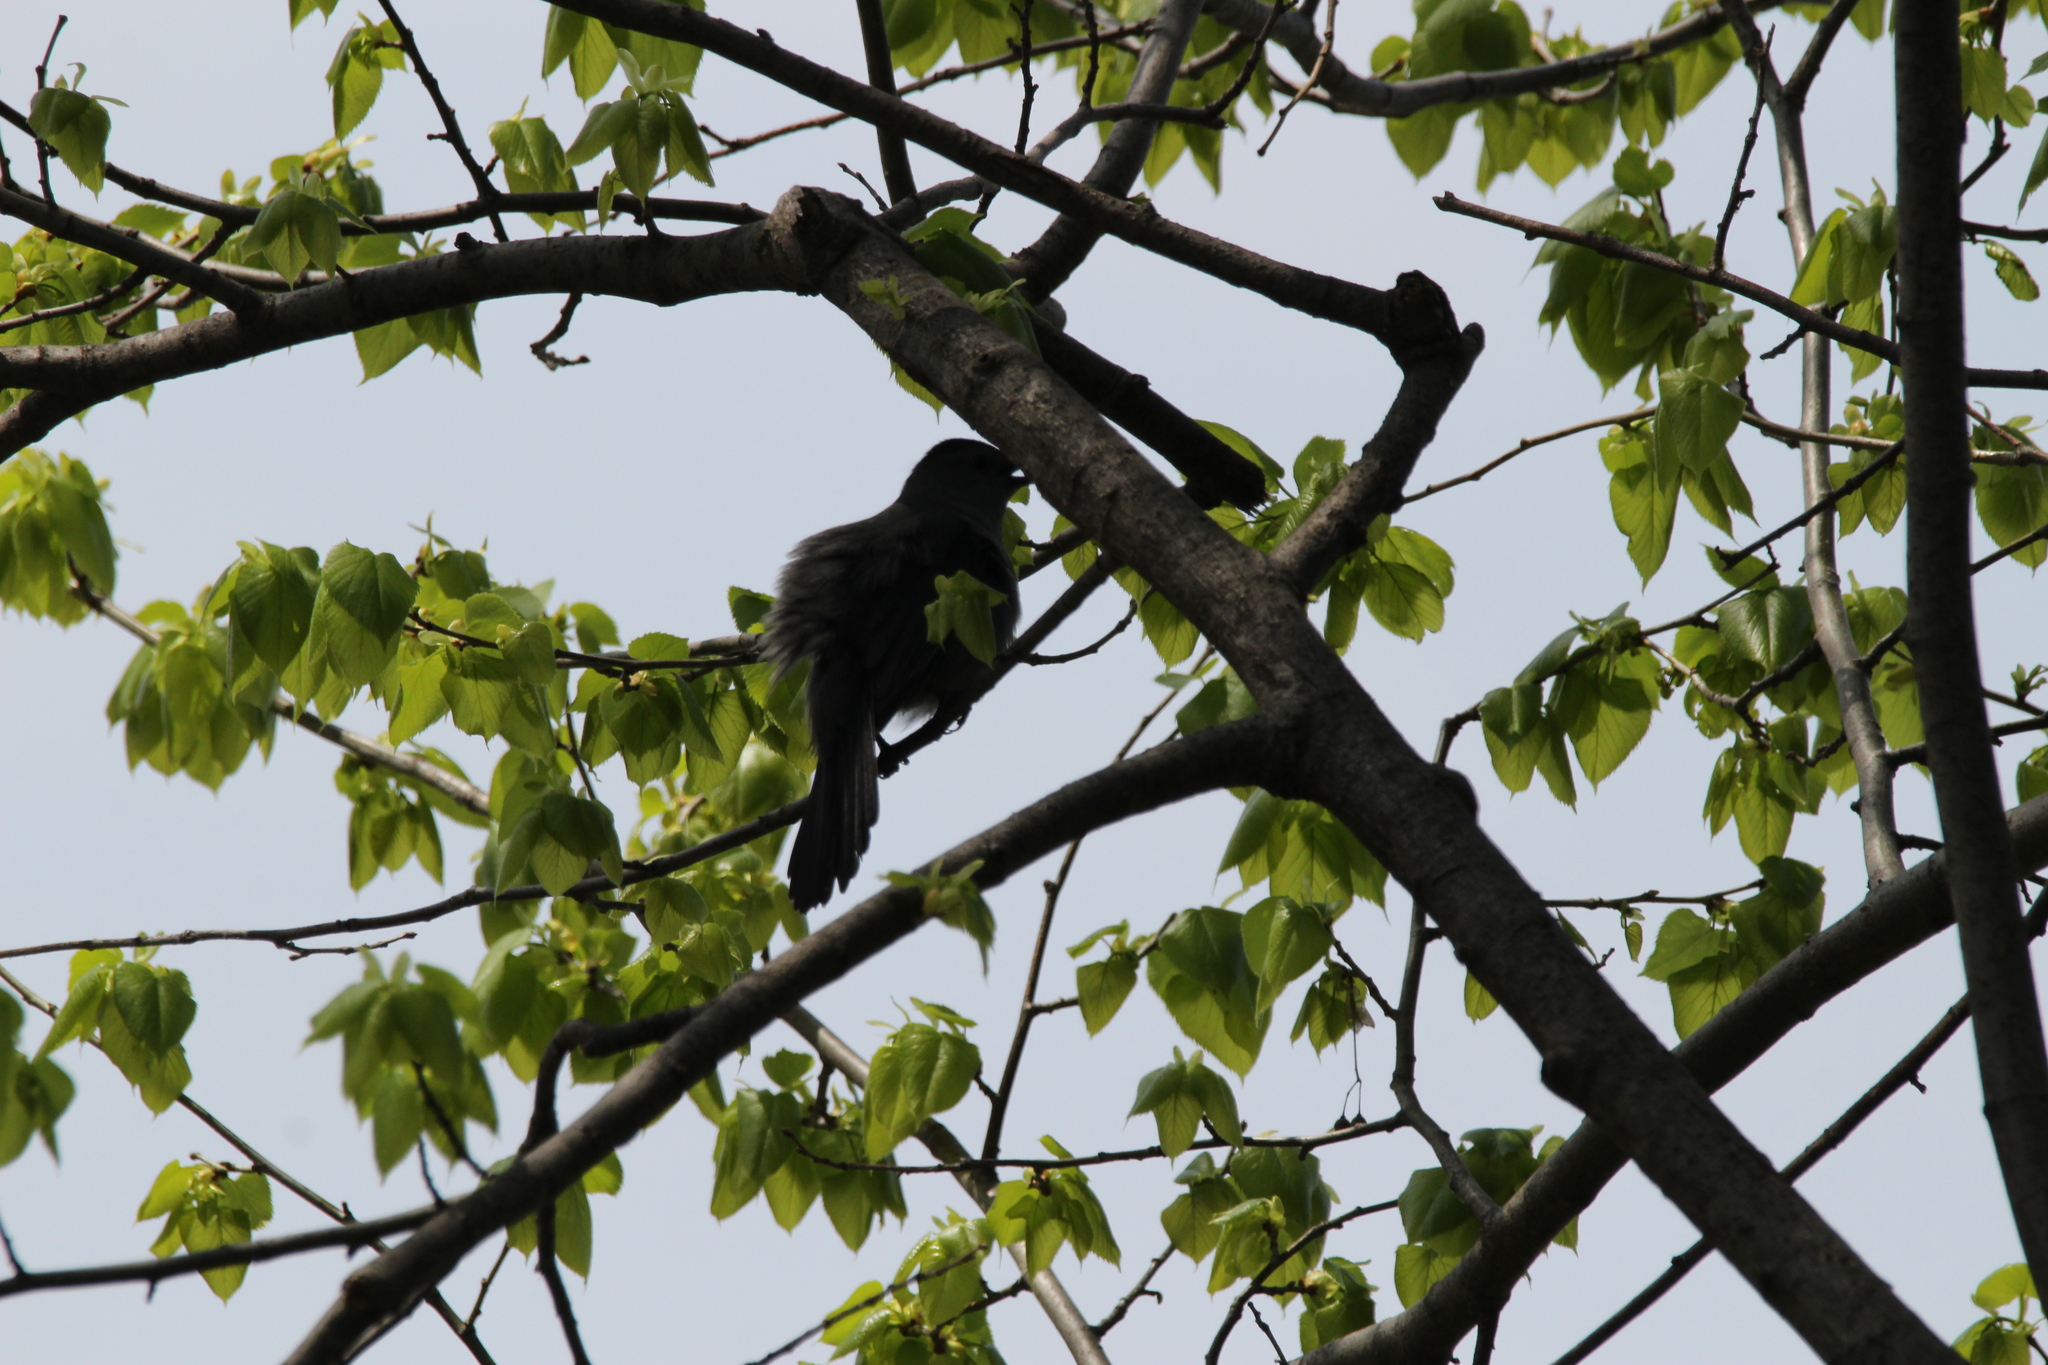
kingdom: Animalia
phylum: Chordata
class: Aves
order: Passeriformes
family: Mimidae
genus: Dumetella
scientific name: Dumetella carolinensis
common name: Gray catbird
